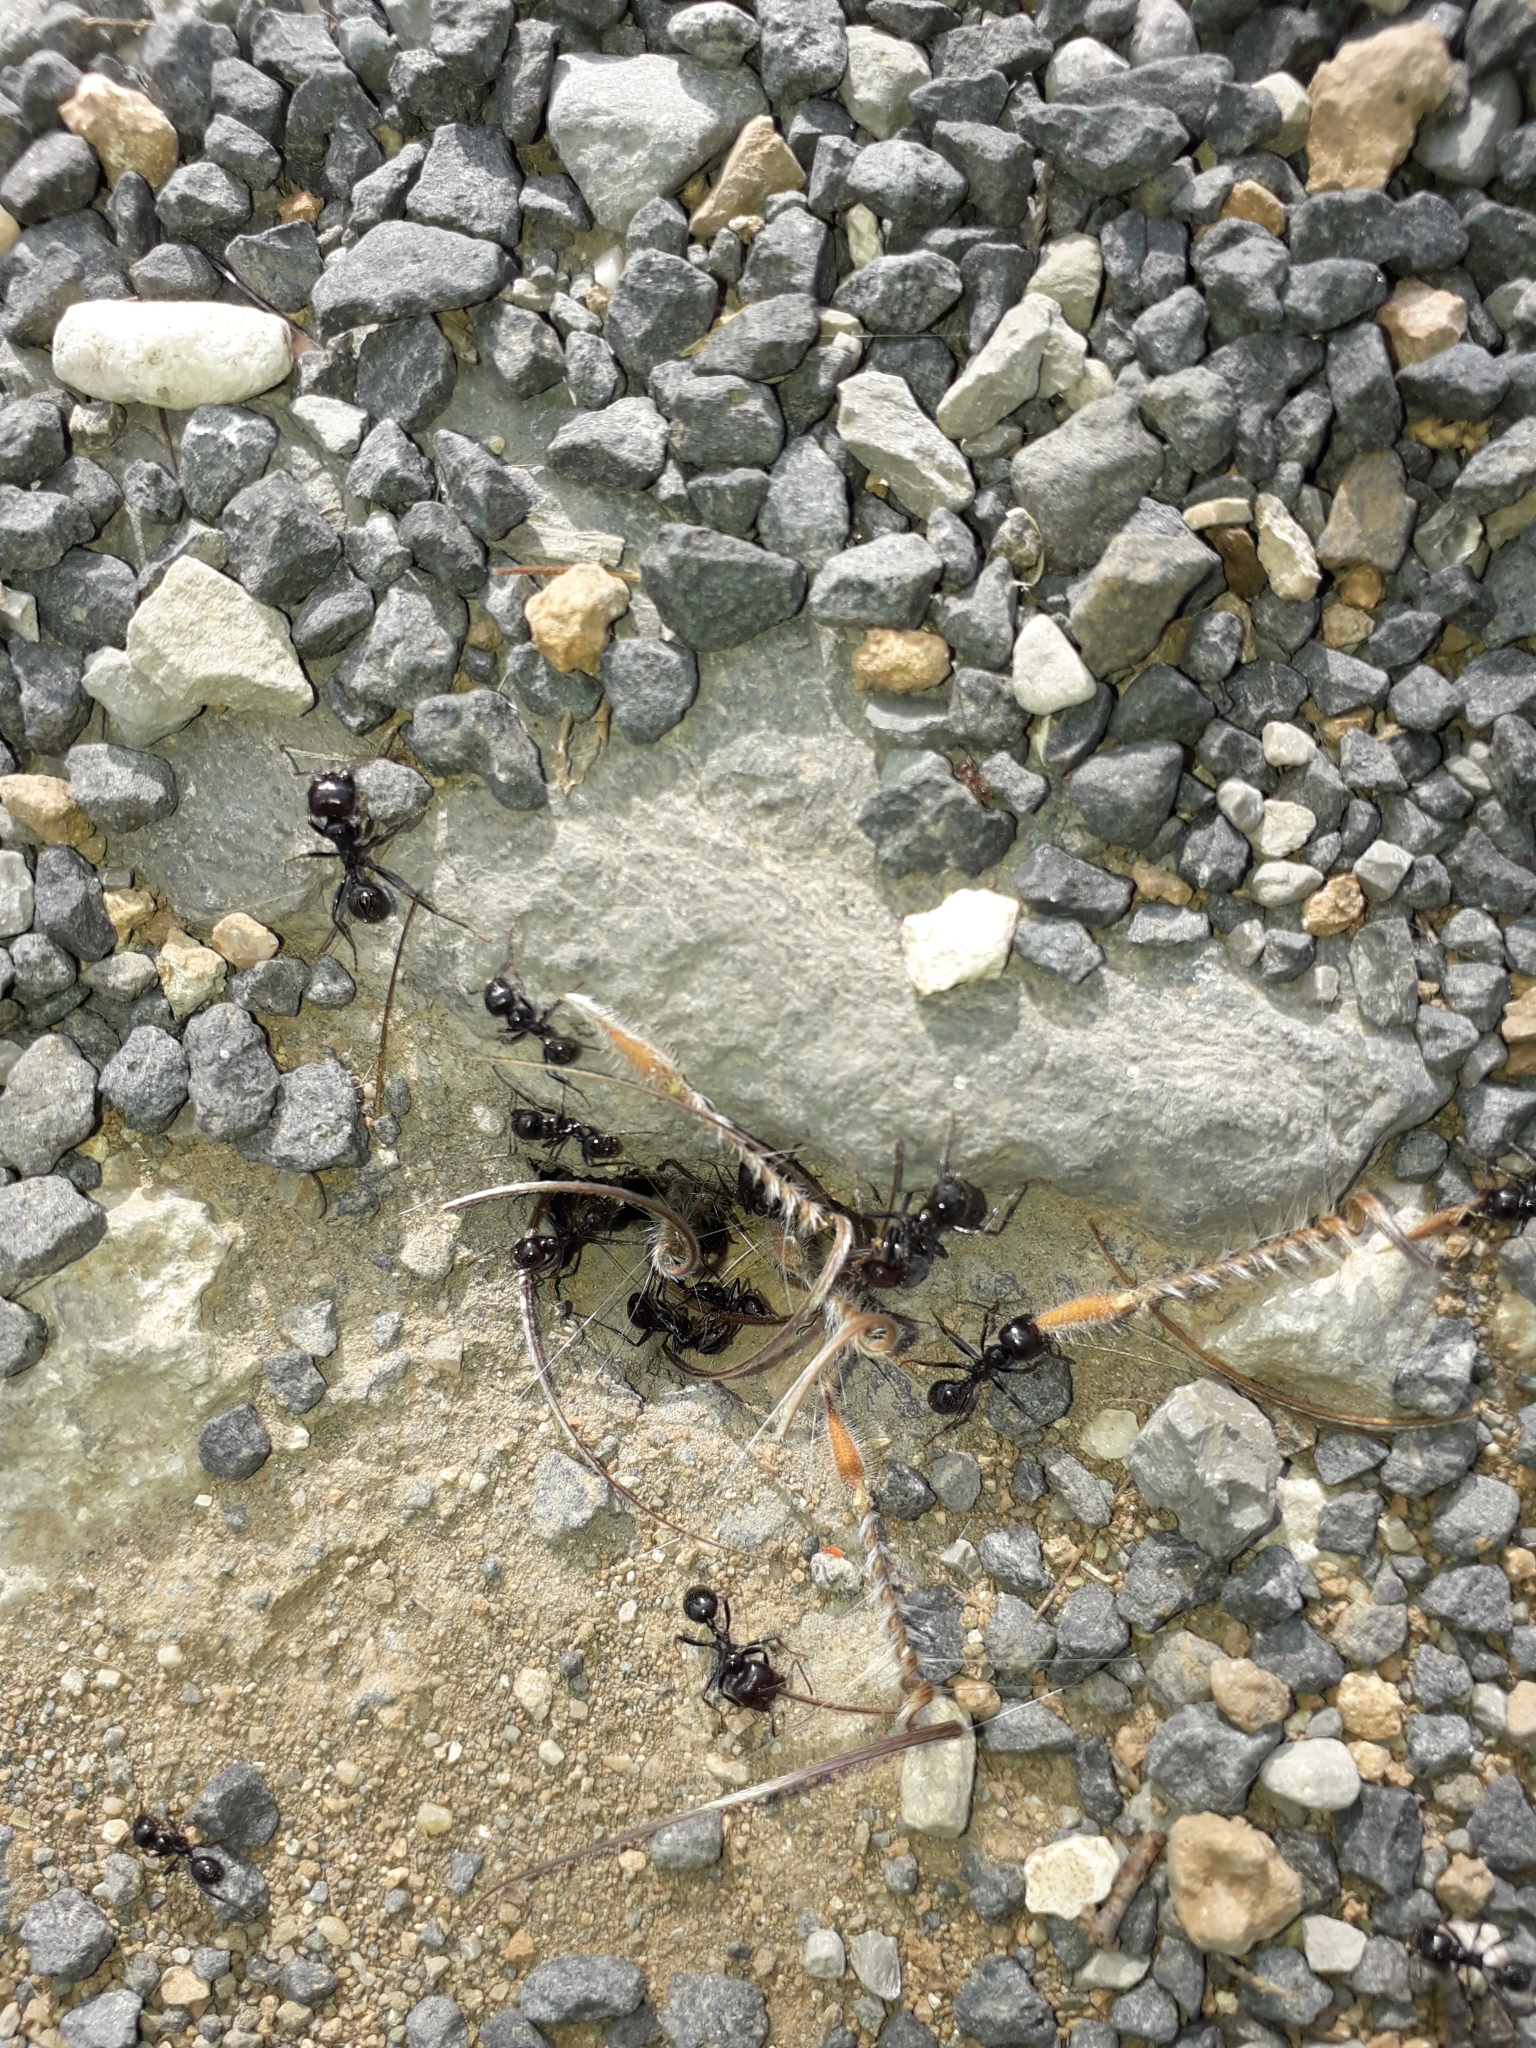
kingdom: Animalia
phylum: Arthropoda
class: Insecta
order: Hymenoptera
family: Formicidae
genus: Messor
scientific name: Messor barbarus
